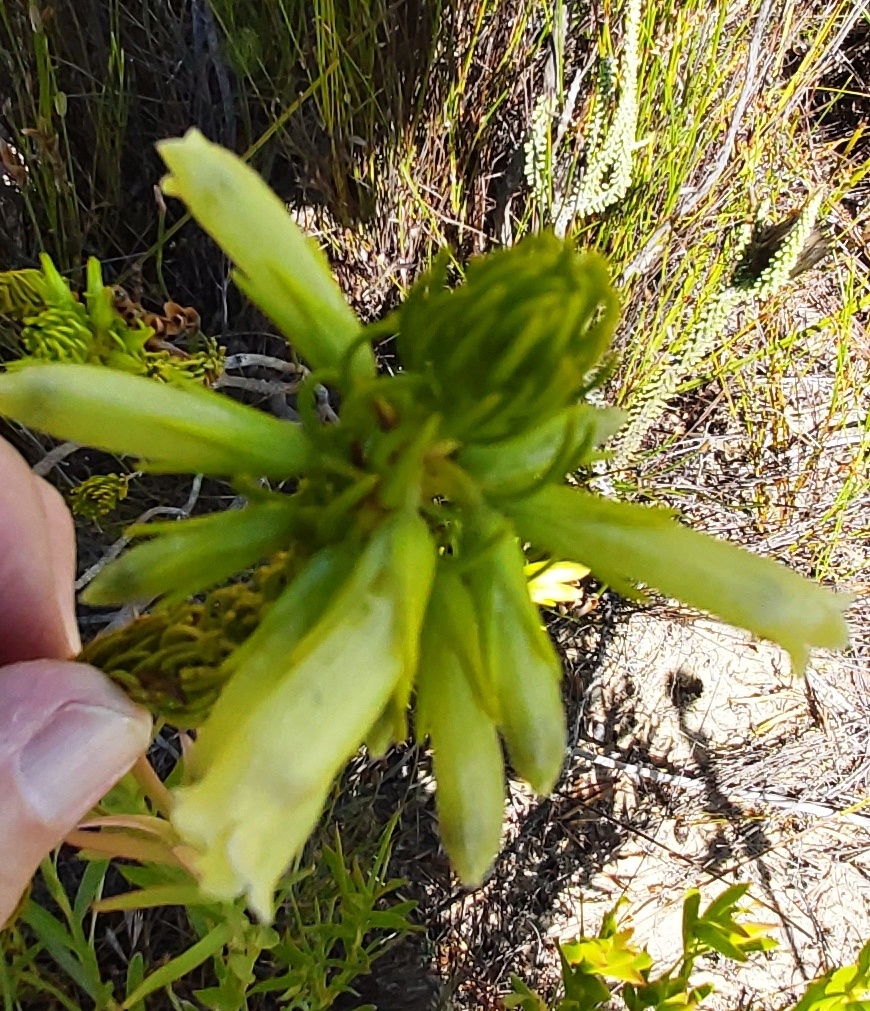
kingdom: Plantae
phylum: Tracheophyta
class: Magnoliopsida
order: Ericales
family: Ericaceae
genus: Erica
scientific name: Erica viscaria
